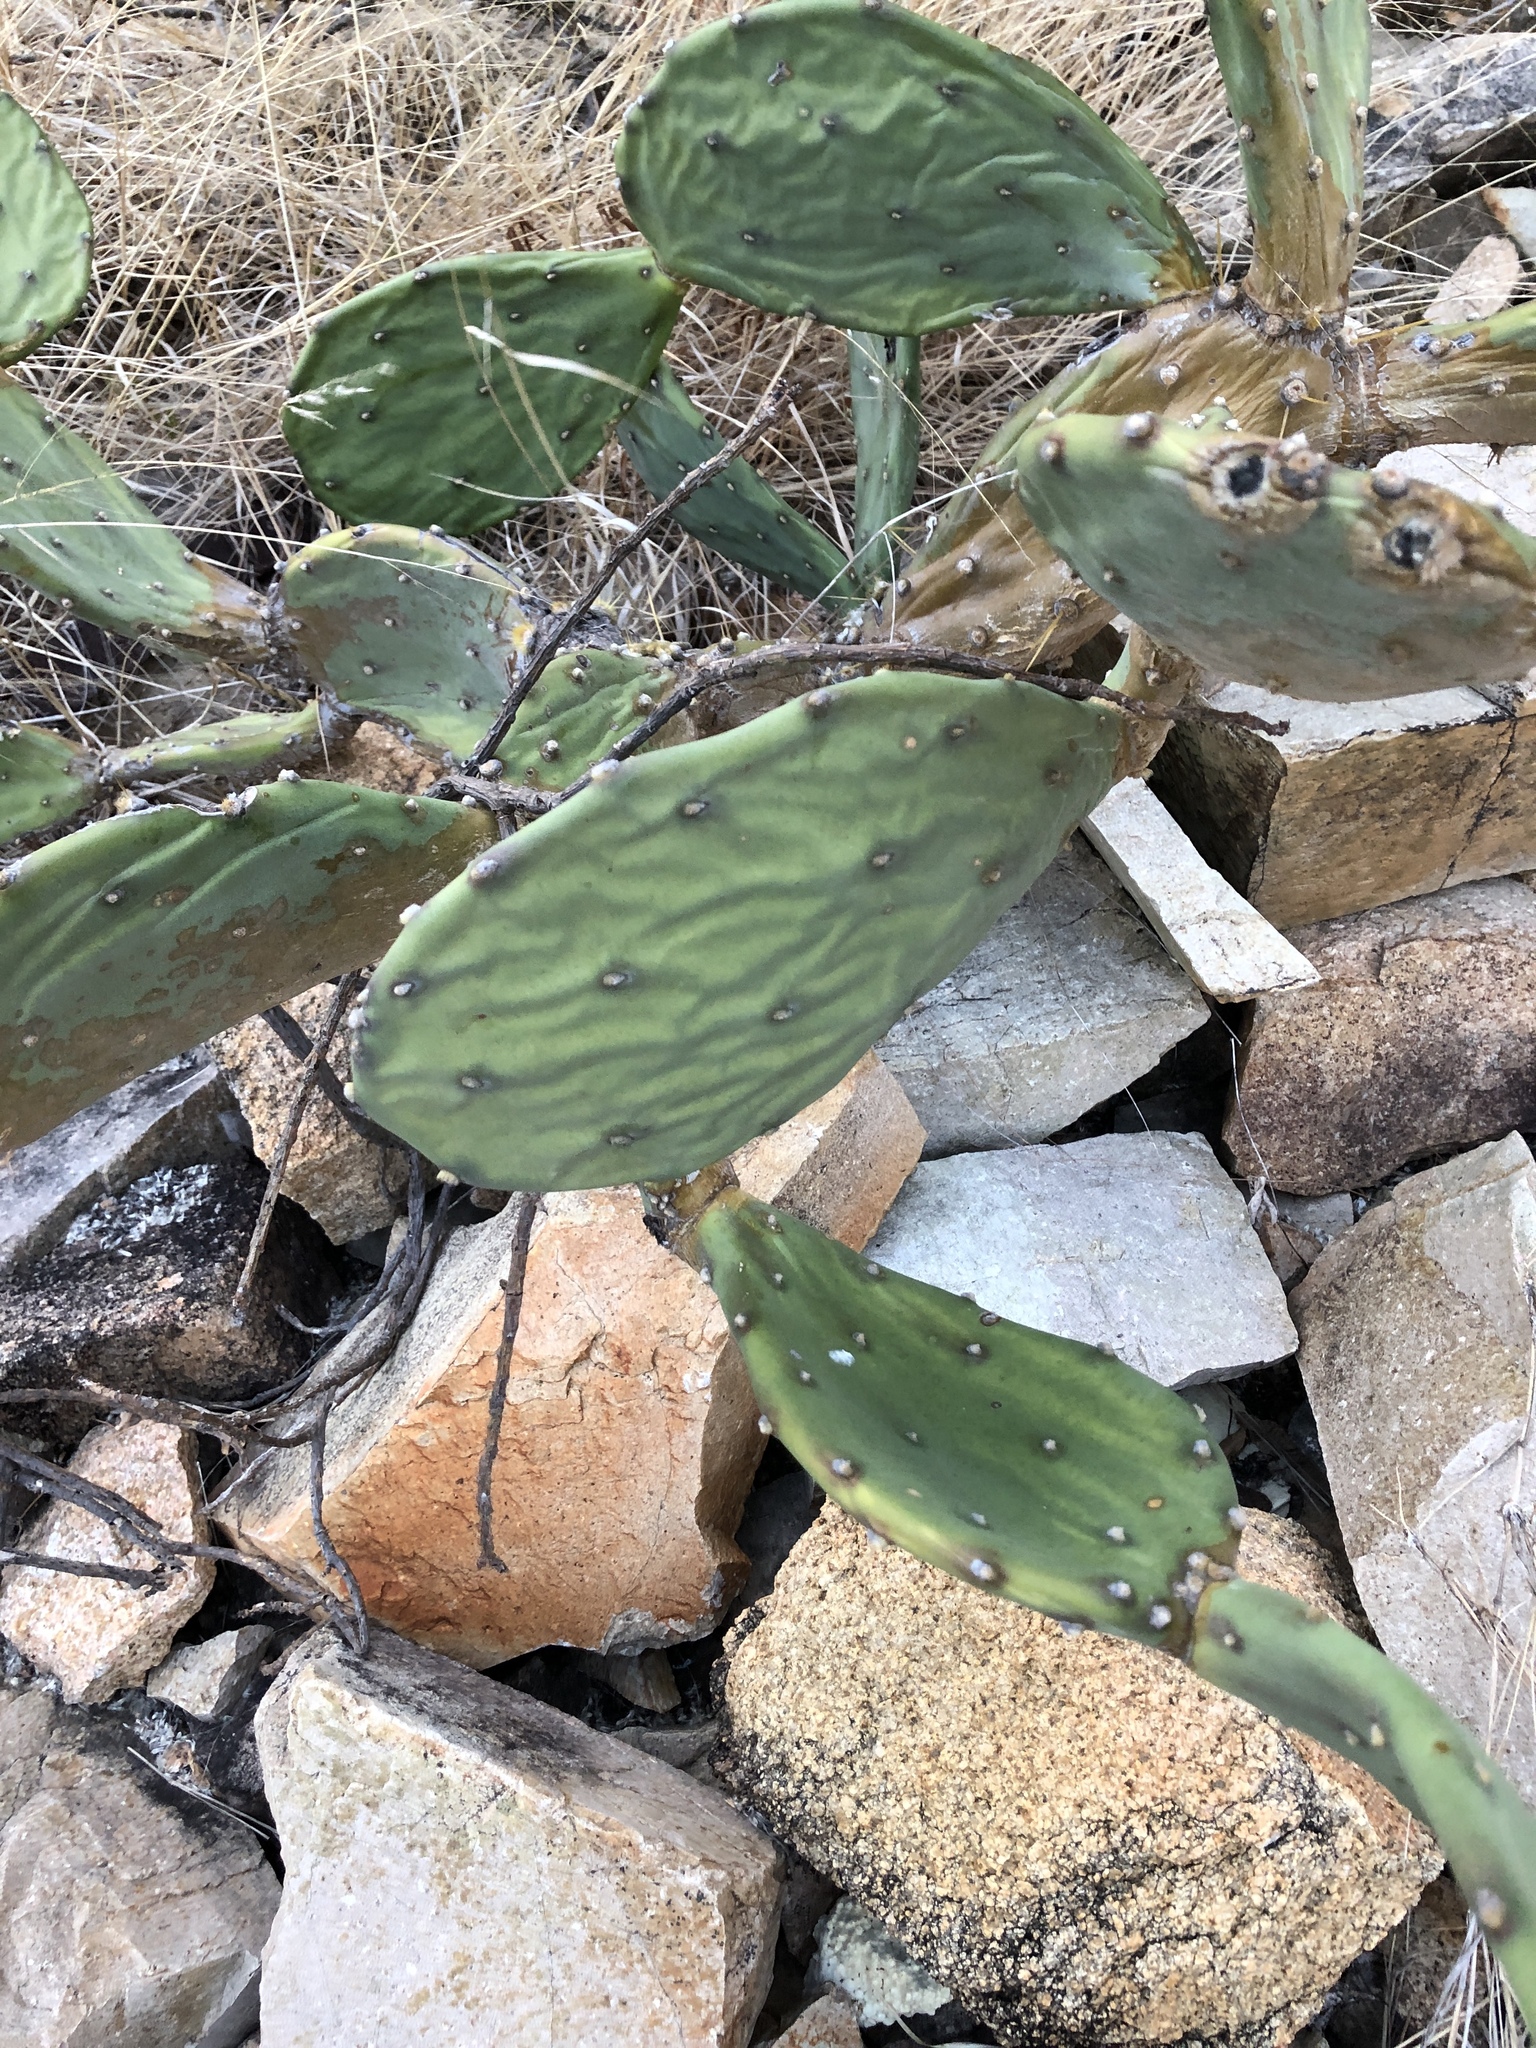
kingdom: Plantae
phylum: Tracheophyta
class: Magnoliopsida
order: Caryophyllales
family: Cactaceae
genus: Opuntia
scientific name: Opuntia stricta
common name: Erect pricklypear
